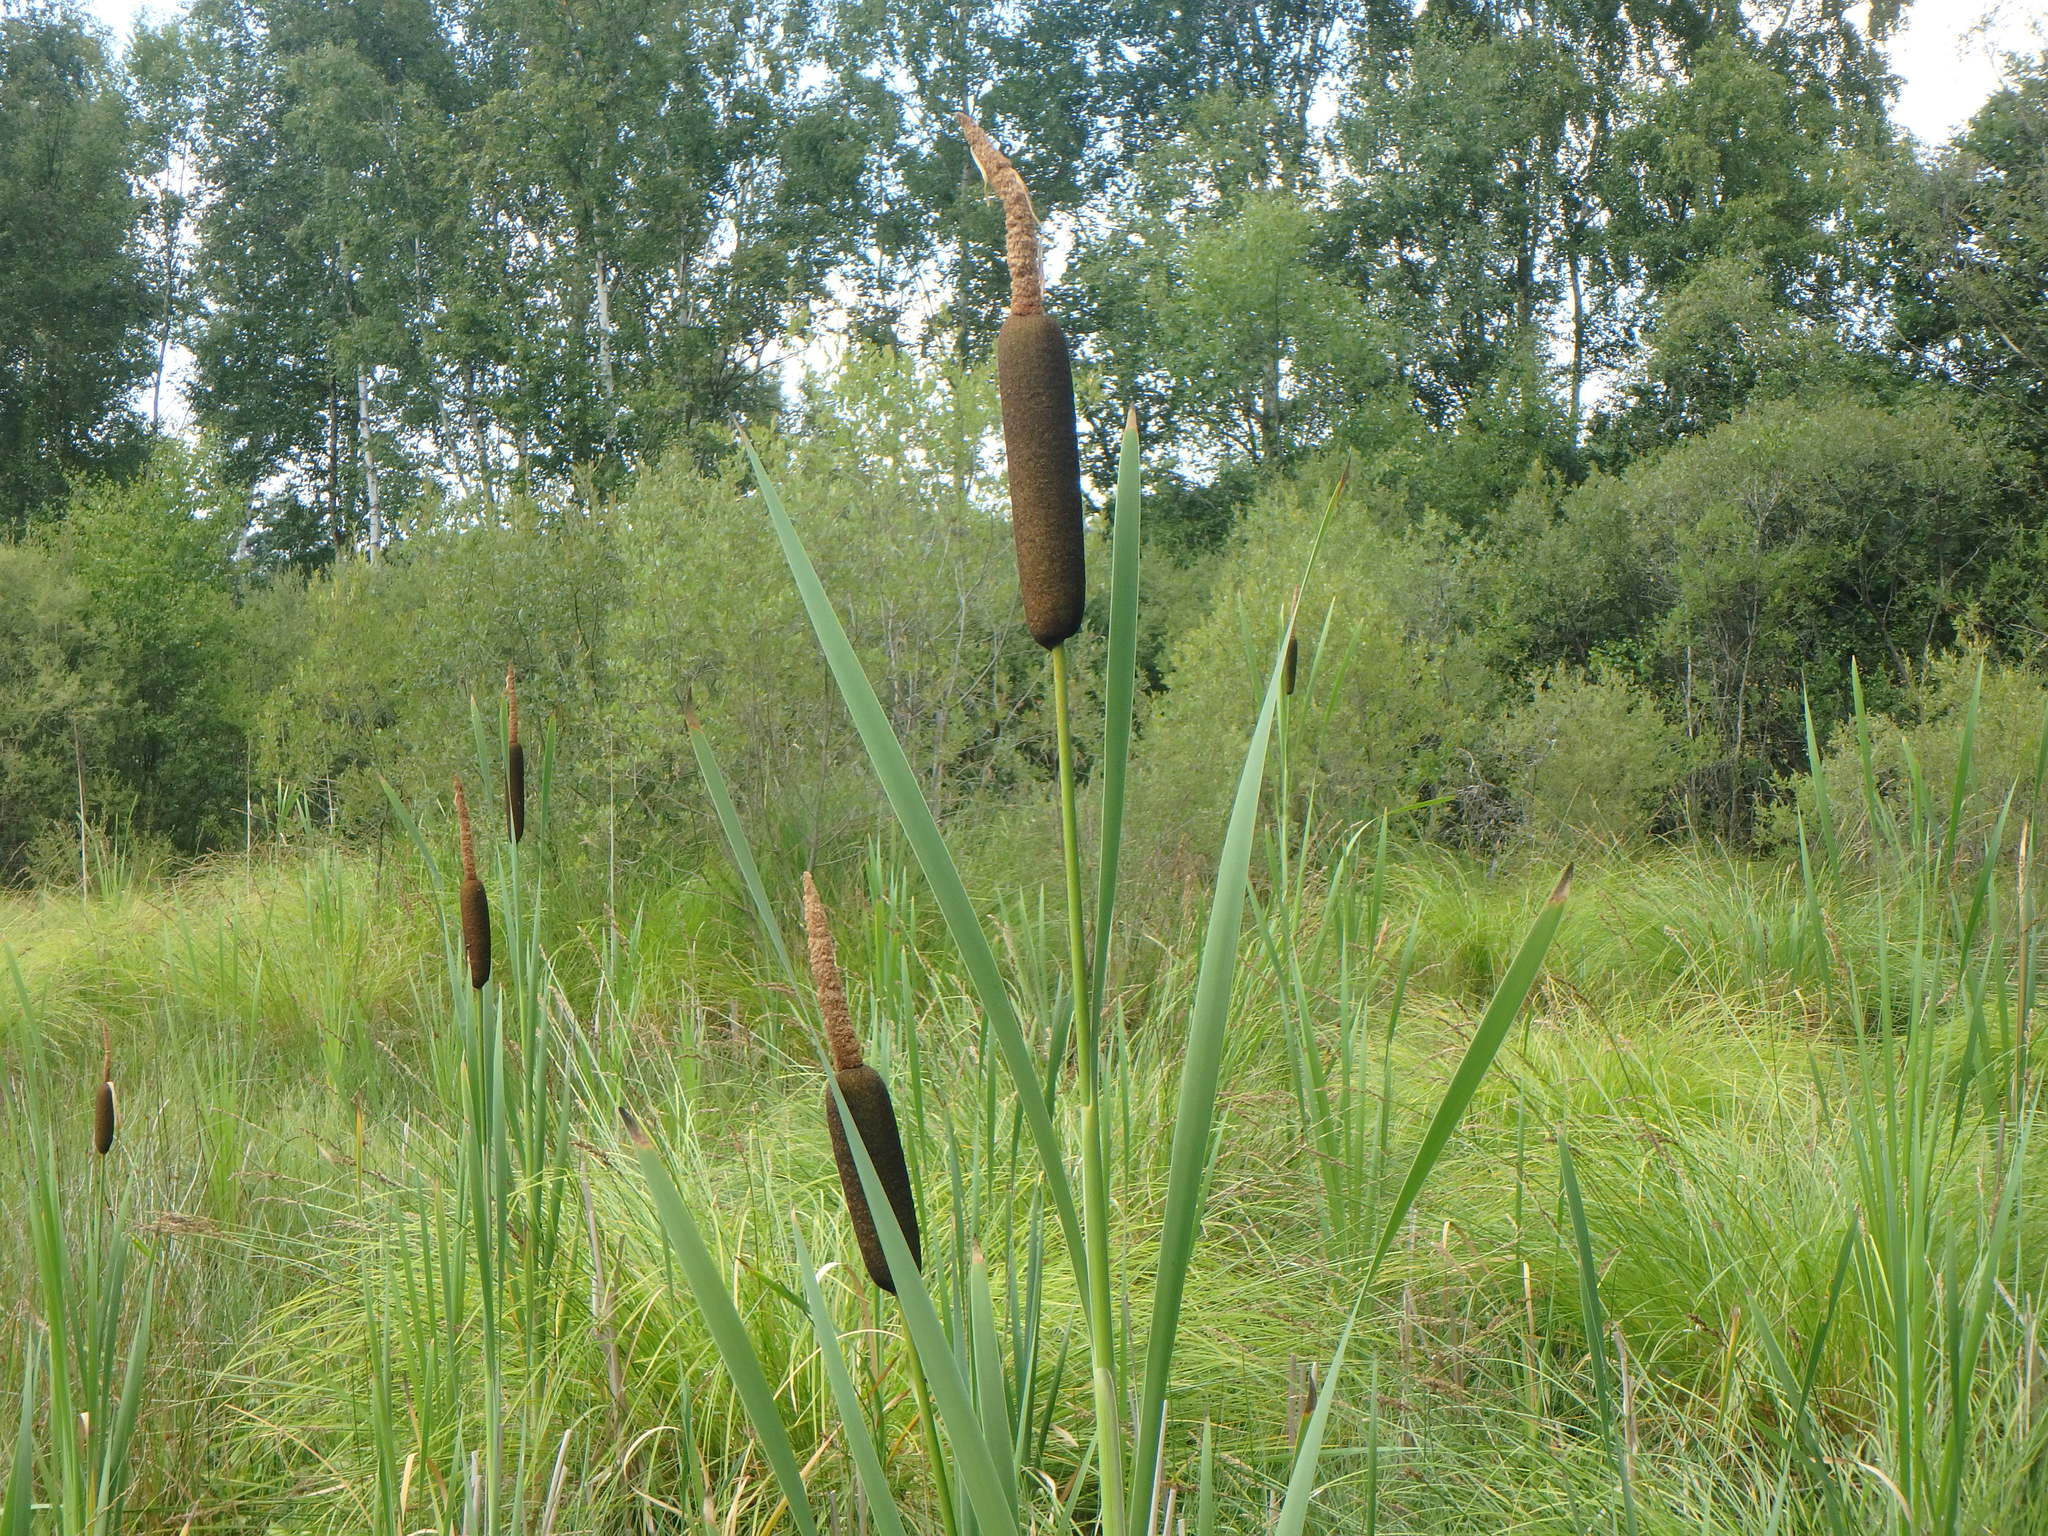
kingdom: Plantae
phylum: Tracheophyta
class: Liliopsida
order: Poales
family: Typhaceae
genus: Typha
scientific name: Typha latifolia
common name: Broadleaf cattail
